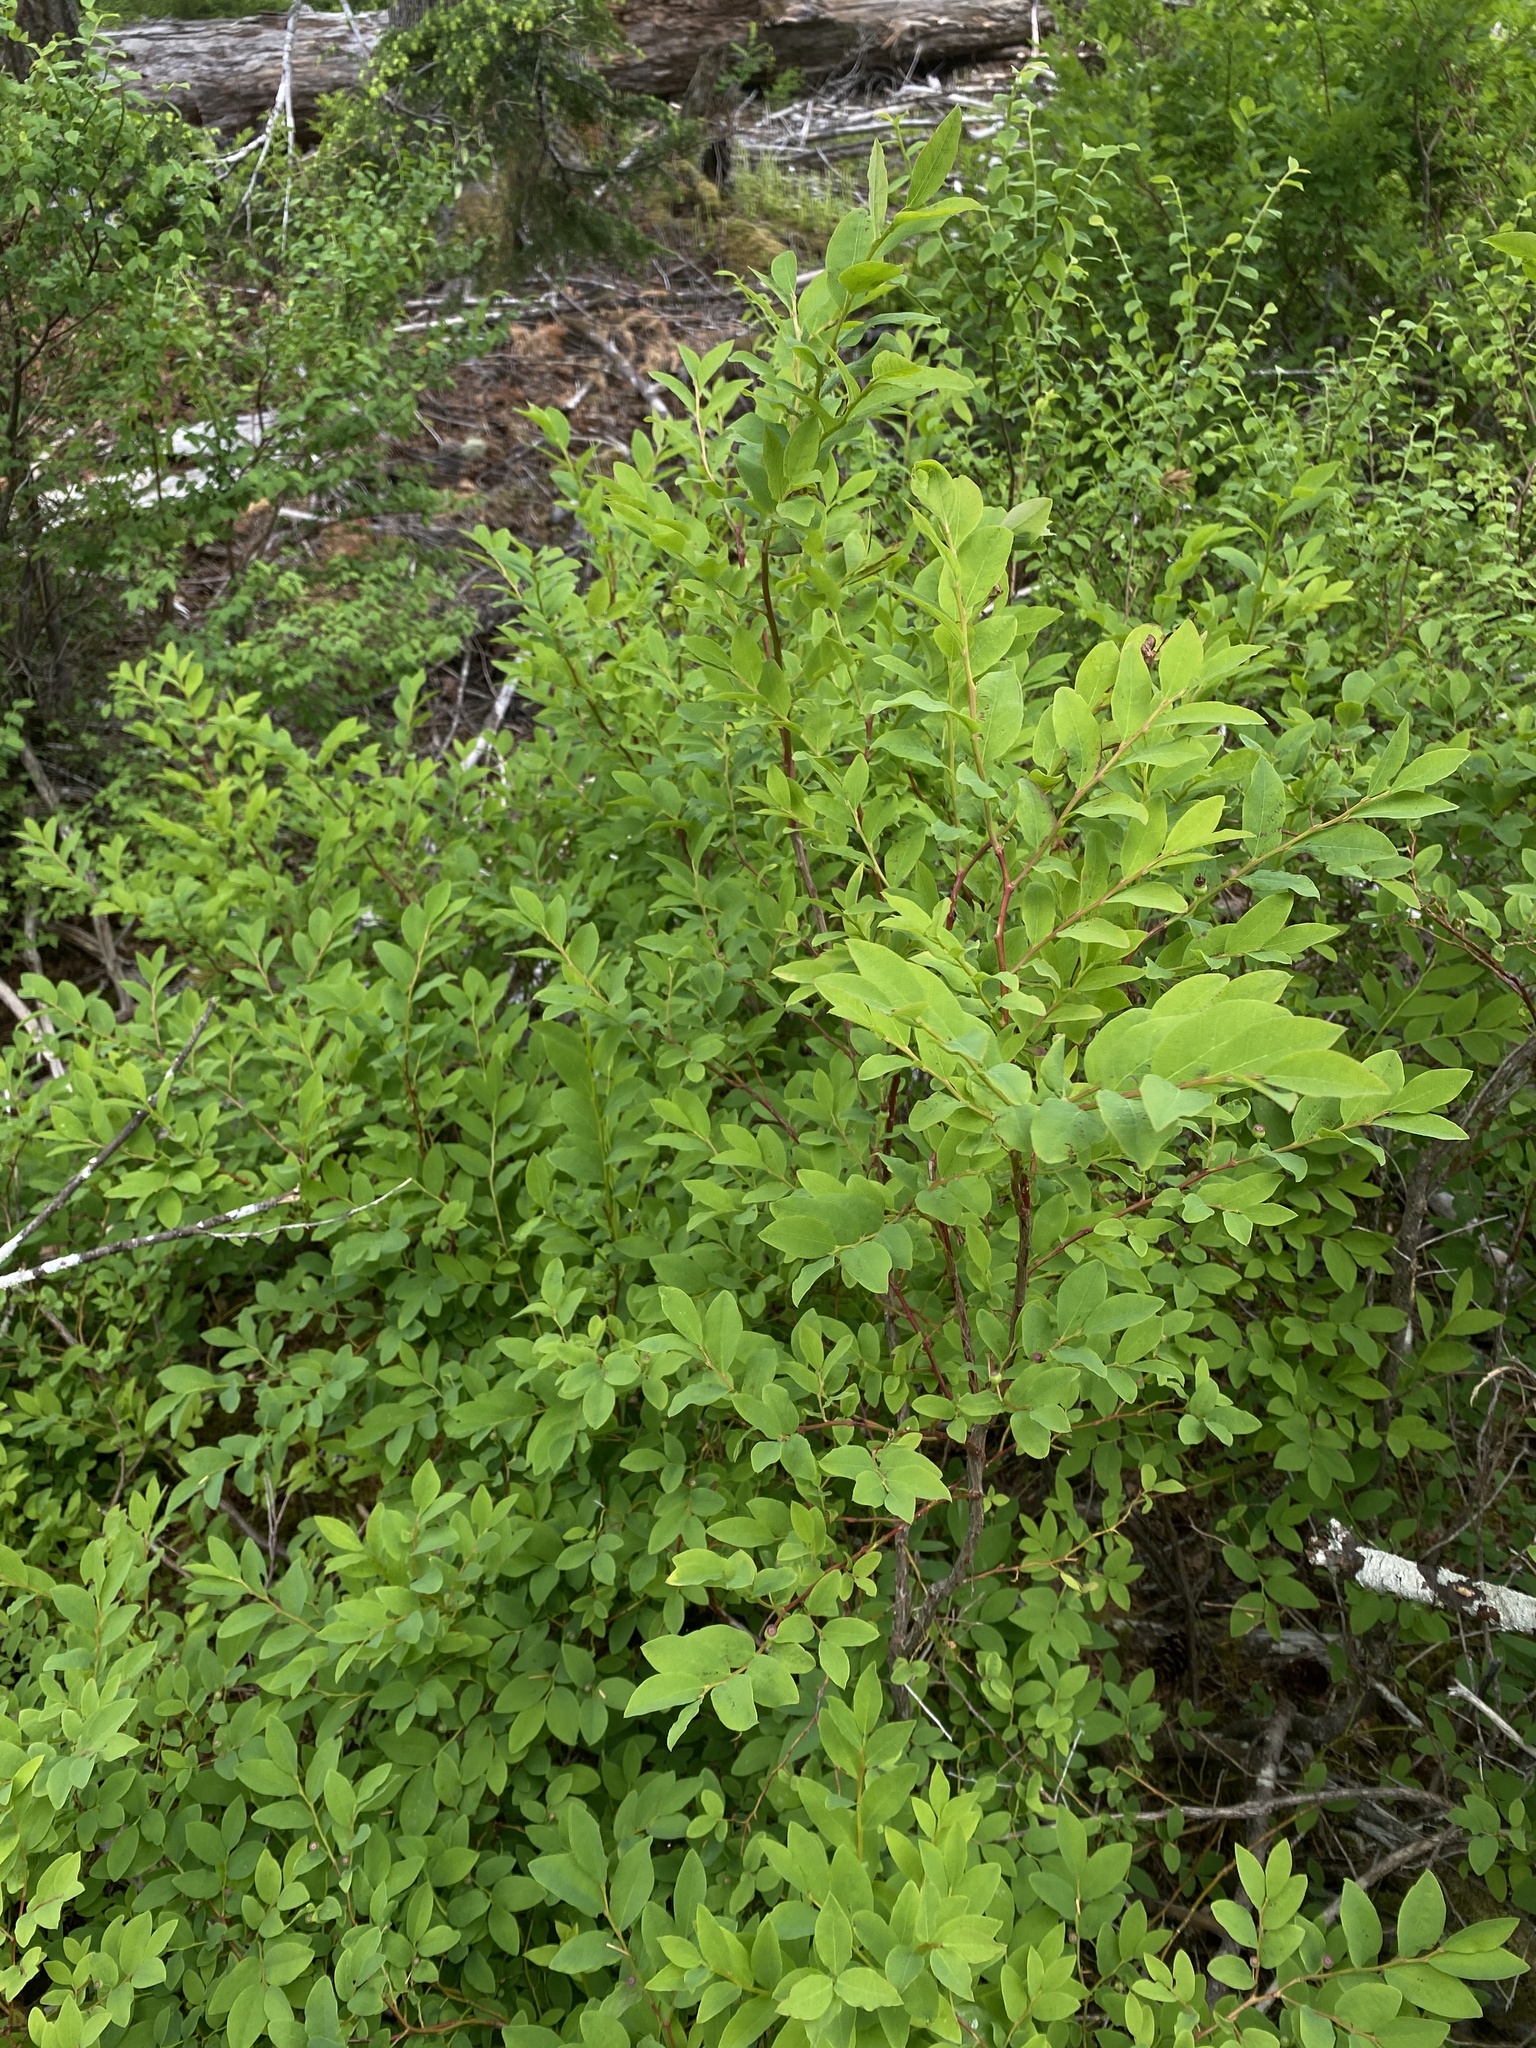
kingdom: Plantae
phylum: Tracheophyta
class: Magnoliopsida
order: Ericales
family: Ericaceae
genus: Vaccinium
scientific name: Vaccinium ovalifolium
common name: Early blueberry
